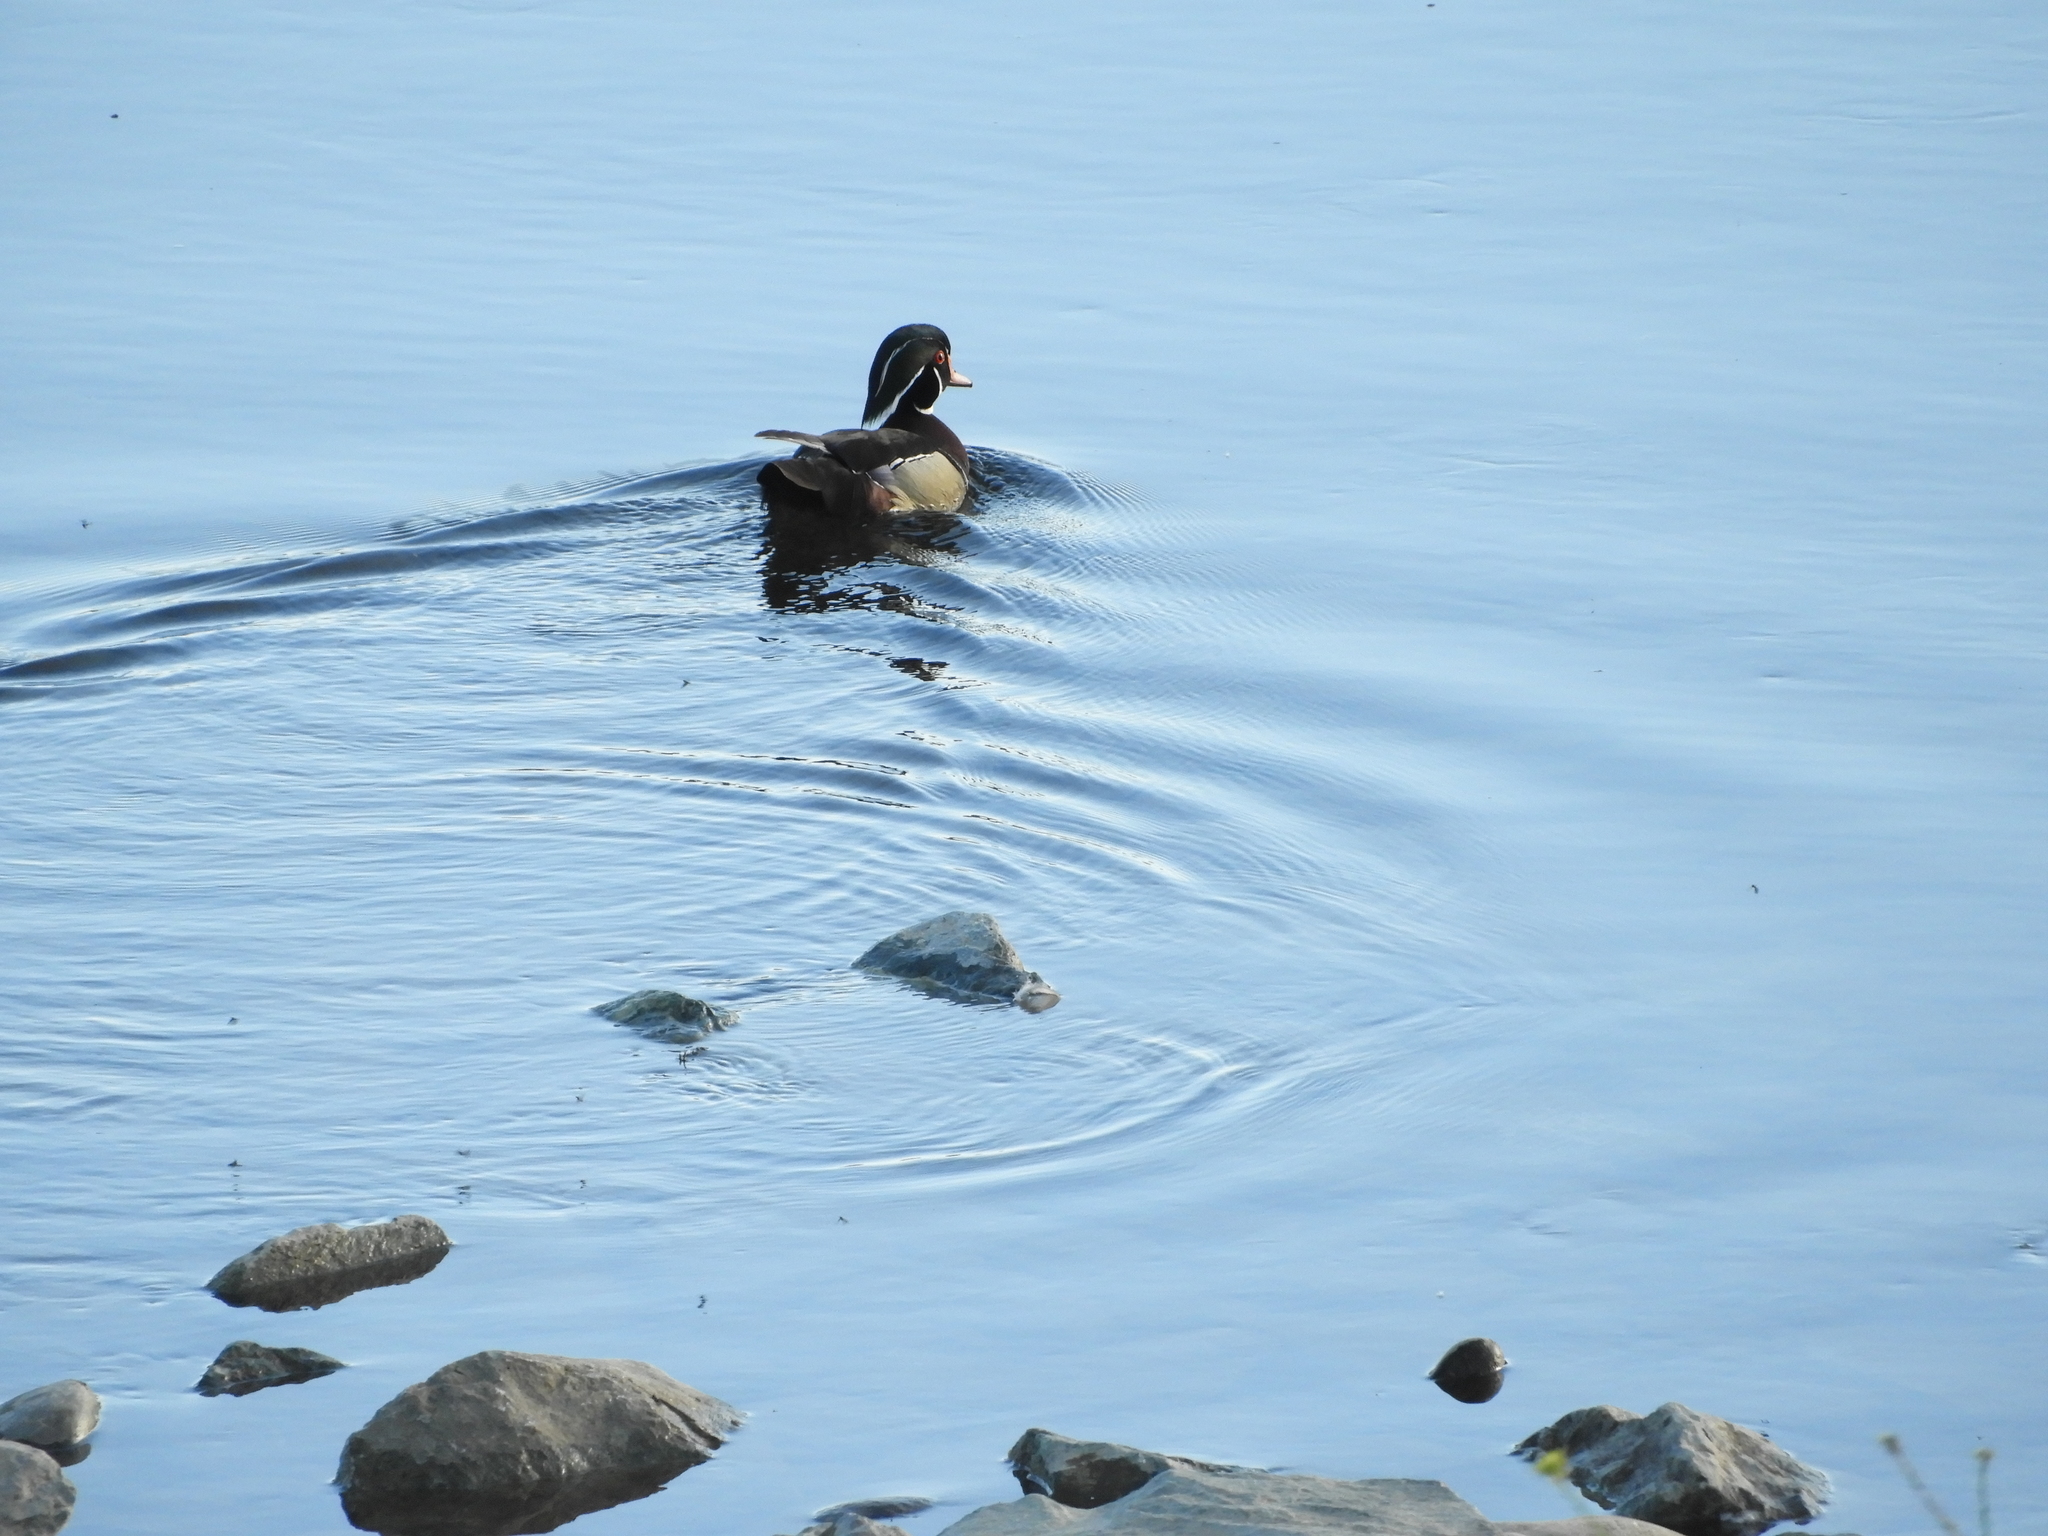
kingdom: Animalia
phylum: Chordata
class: Aves
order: Anseriformes
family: Anatidae
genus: Aix
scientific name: Aix sponsa
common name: Wood duck
